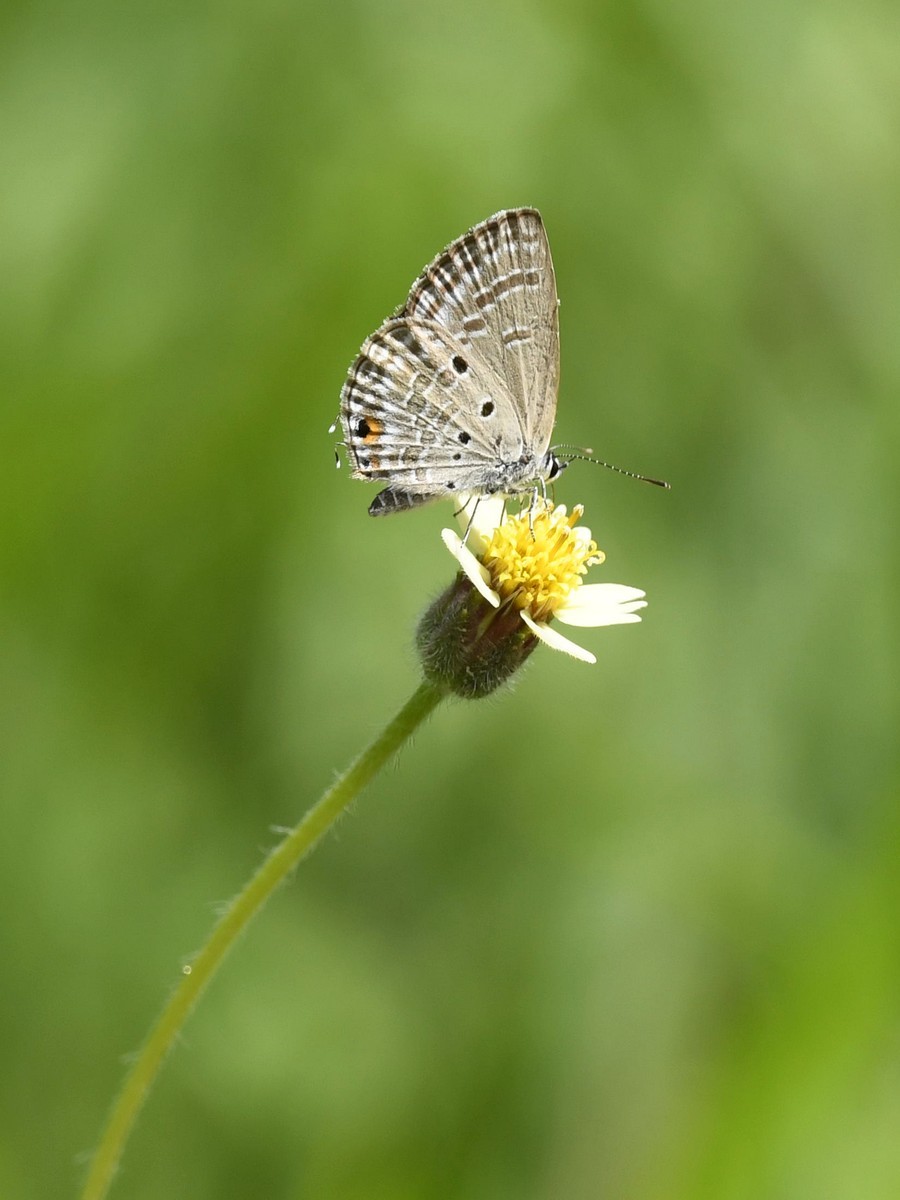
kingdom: Animalia
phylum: Arthropoda
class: Insecta
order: Lepidoptera
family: Lycaenidae
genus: Luthrodes
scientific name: Luthrodes pandava
